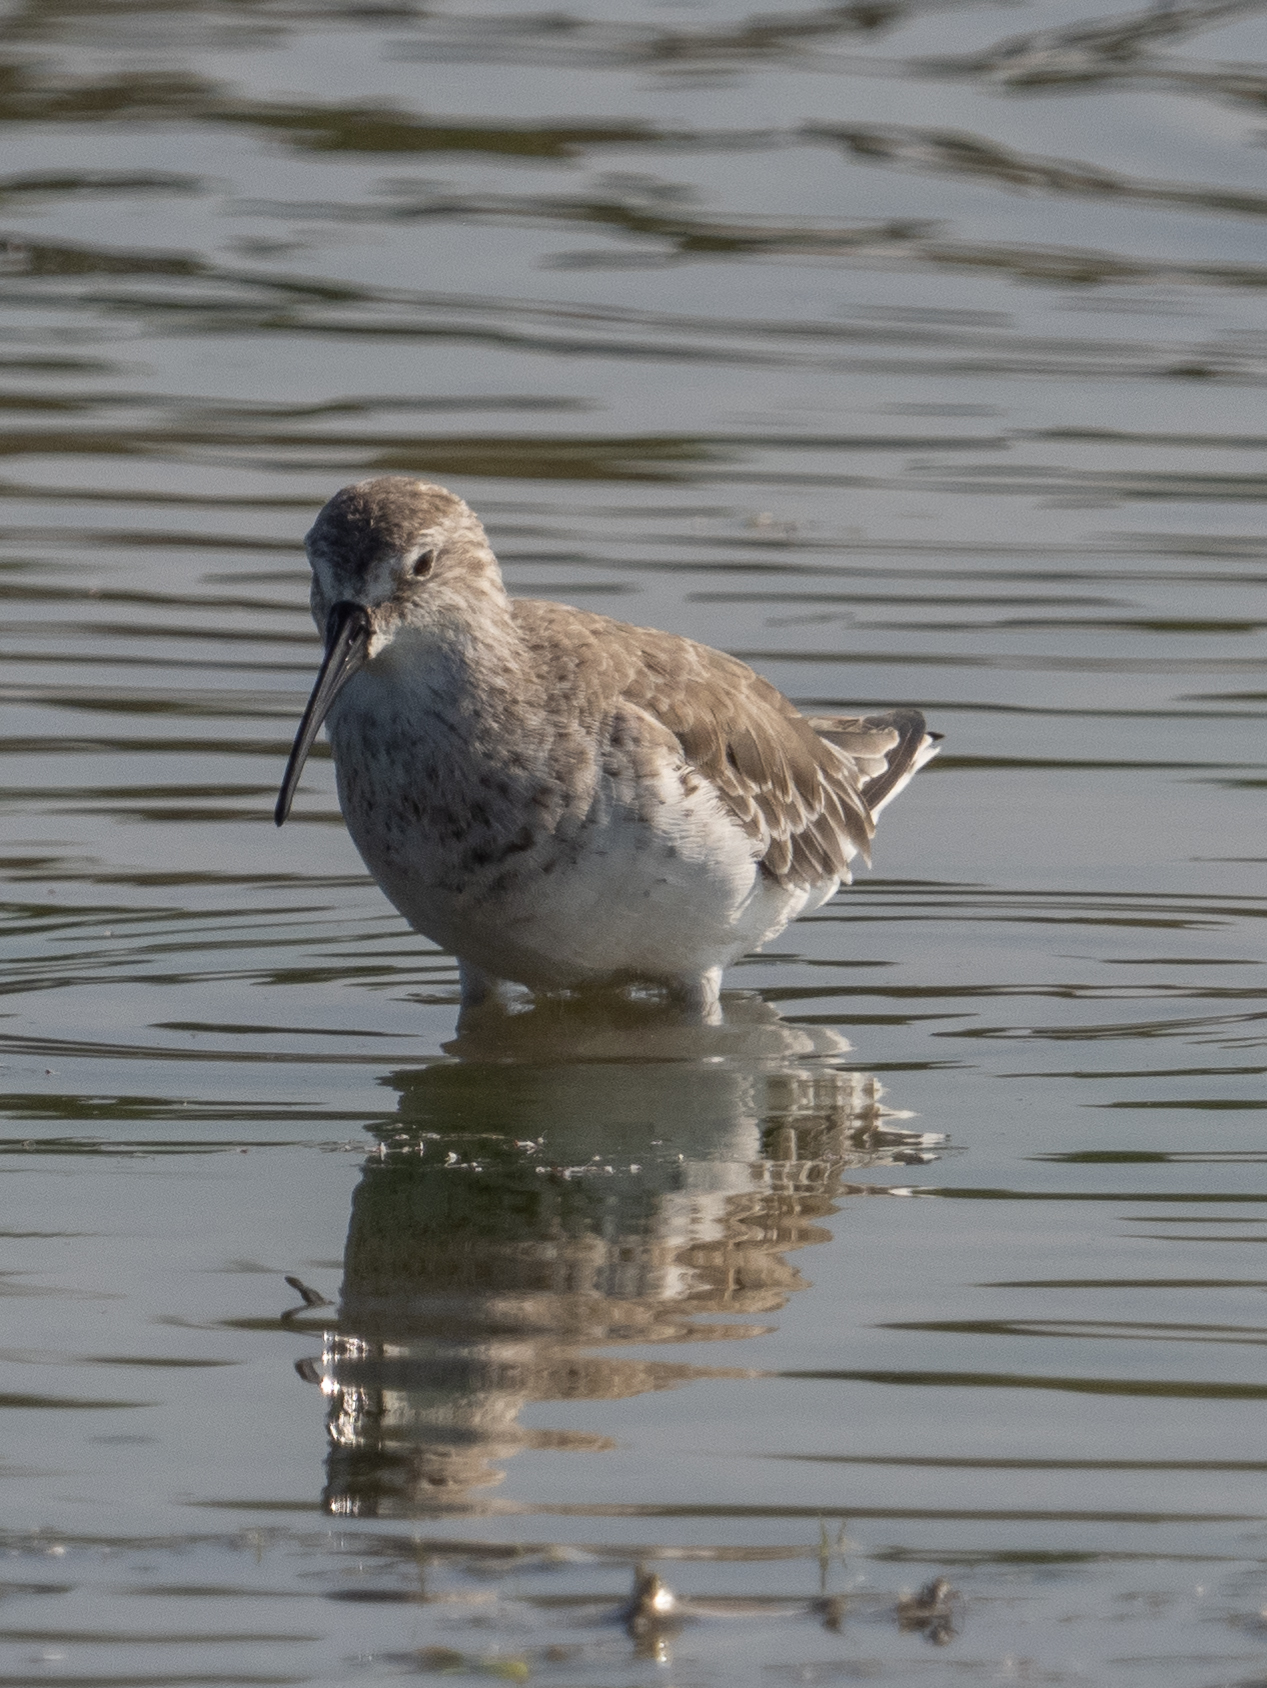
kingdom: Animalia
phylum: Chordata
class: Aves
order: Charadriiformes
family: Scolopacidae
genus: Calidris
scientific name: Calidris ferruginea
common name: Curlew sandpiper
